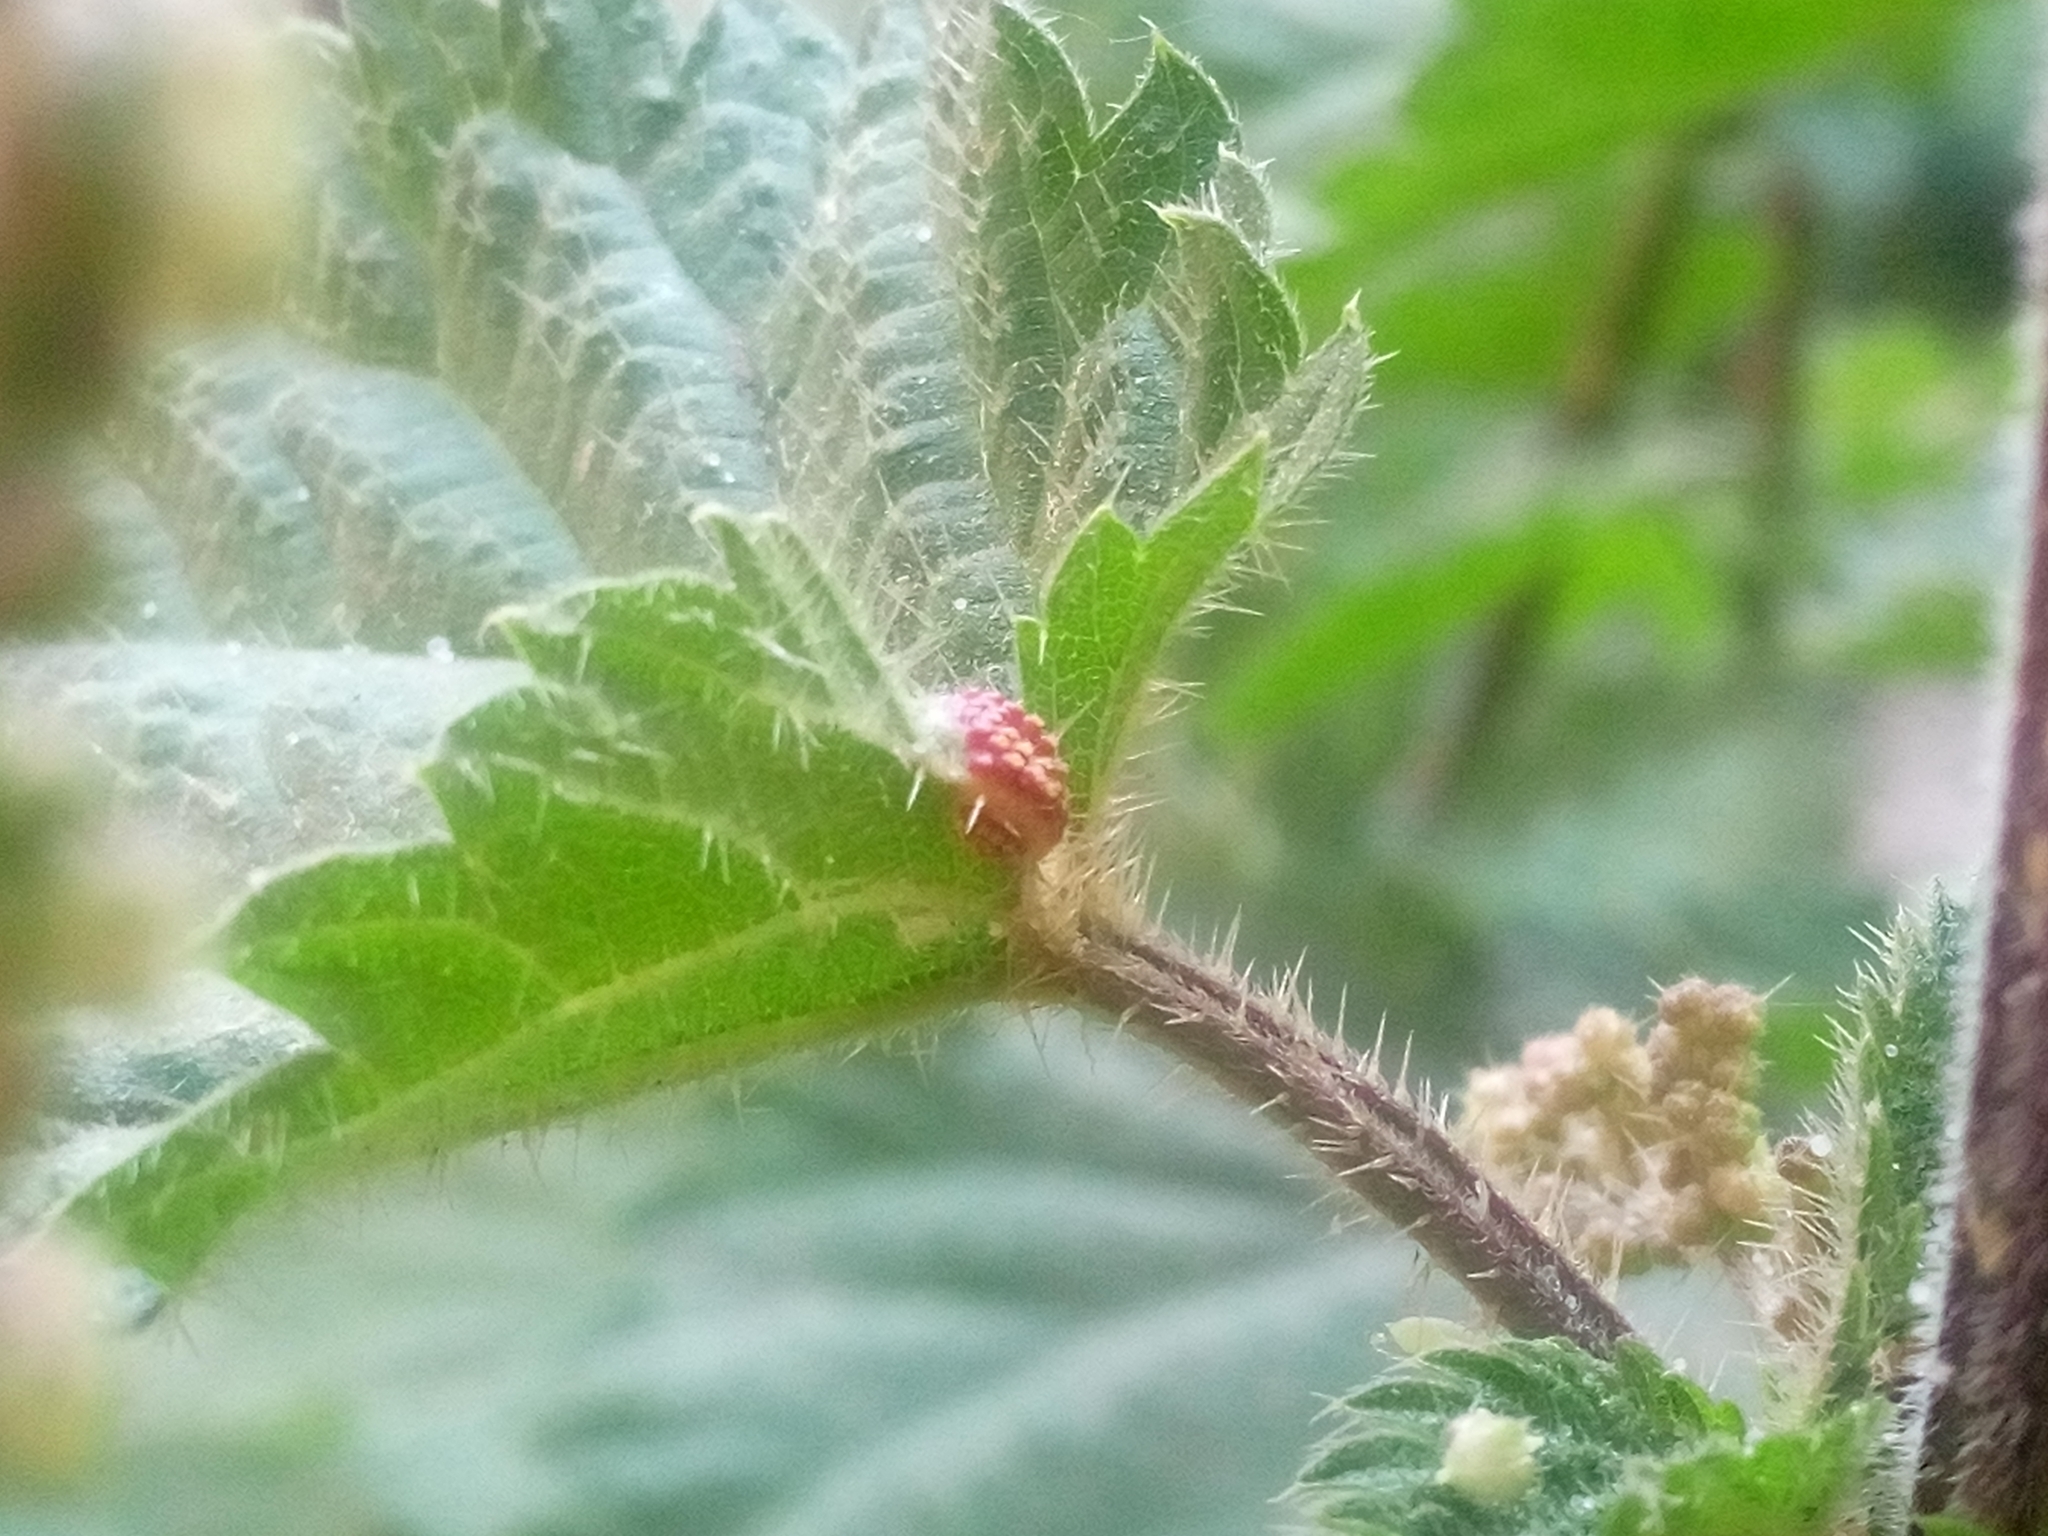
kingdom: Fungi
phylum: Basidiomycota
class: Pucciniomycetes
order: Pucciniales
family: Pucciniaceae
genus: Puccinia
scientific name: Puccinia urticata
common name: Nettle clustercup rust fungus
